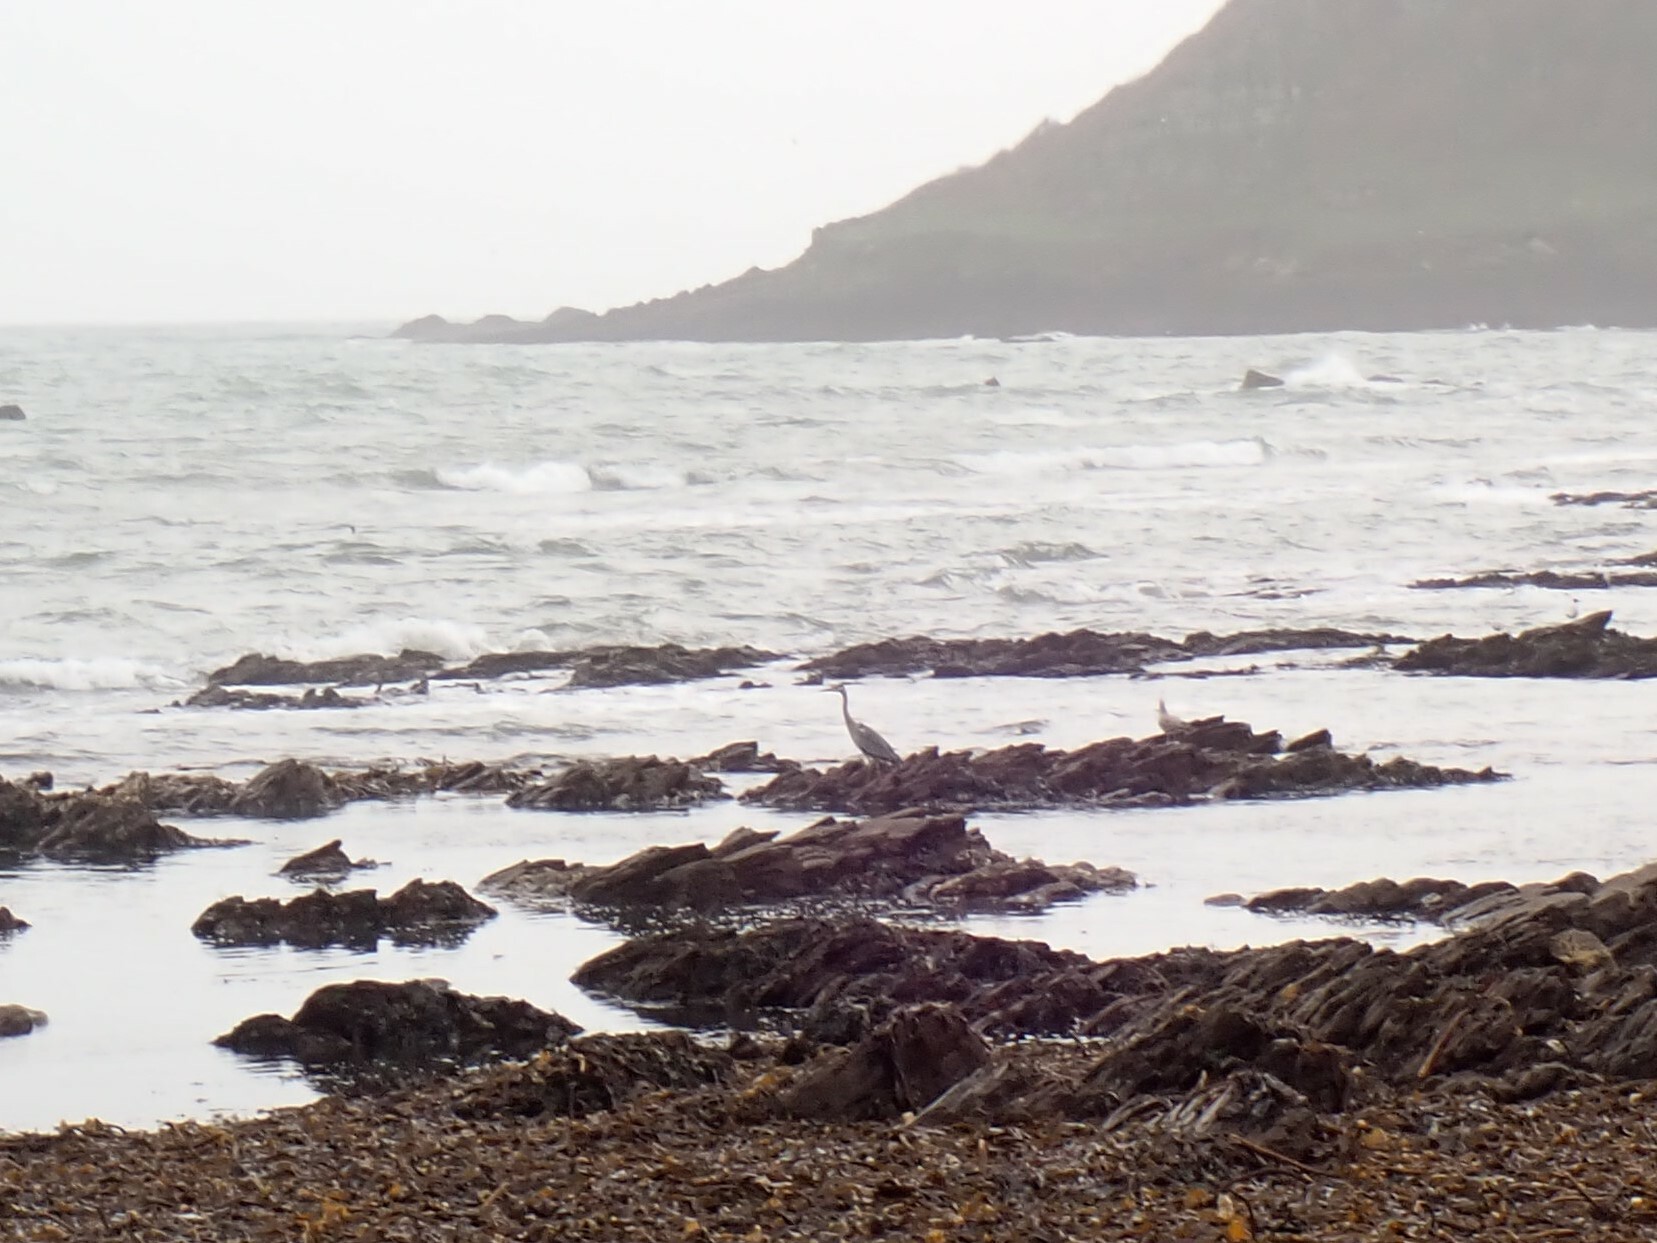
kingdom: Animalia
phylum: Chordata
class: Aves
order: Pelecaniformes
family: Ardeidae
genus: Ardea
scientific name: Ardea cinerea
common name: Grey heron
